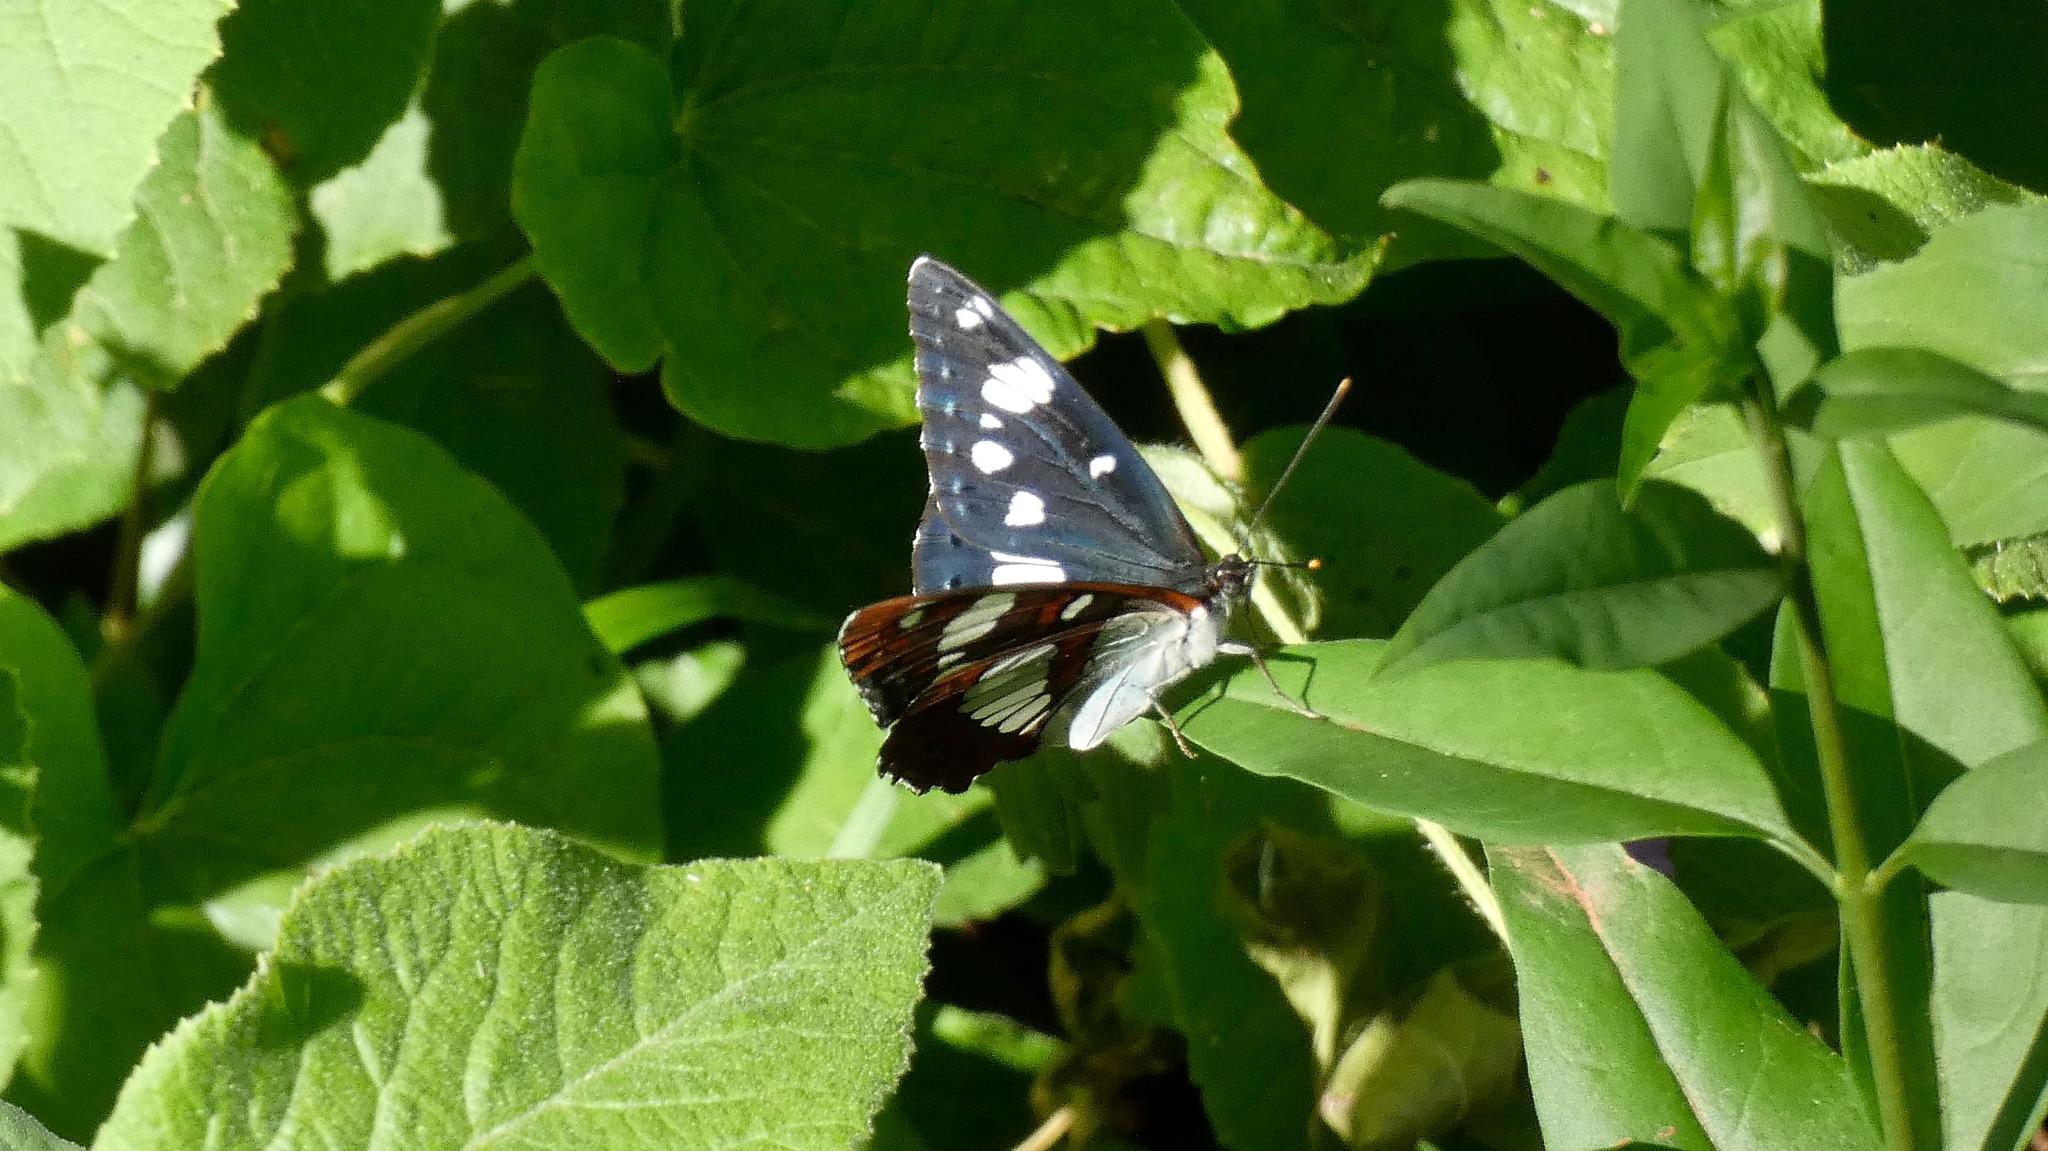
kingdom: Animalia
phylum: Arthropoda
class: Insecta
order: Lepidoptera
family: Nymphalidae
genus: Limenitis
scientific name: Limenitis reducta
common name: Southern white admiral
